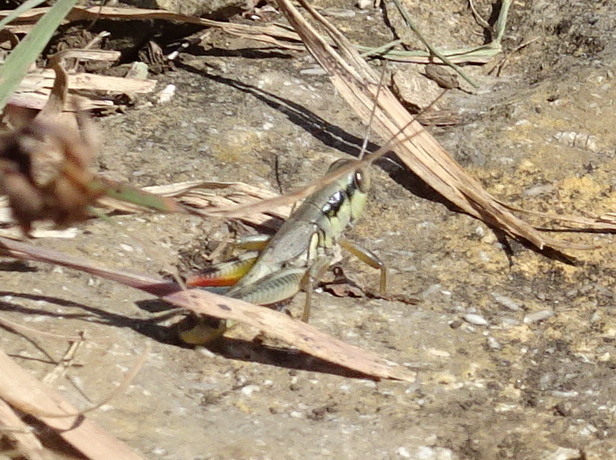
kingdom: Animalia
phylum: Arthropoda
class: Insecta
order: Orthoptera
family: Acrididae
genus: Phoetaliotes
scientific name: Phoetaliotes nebrascensis
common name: Large-headed grasshopper
